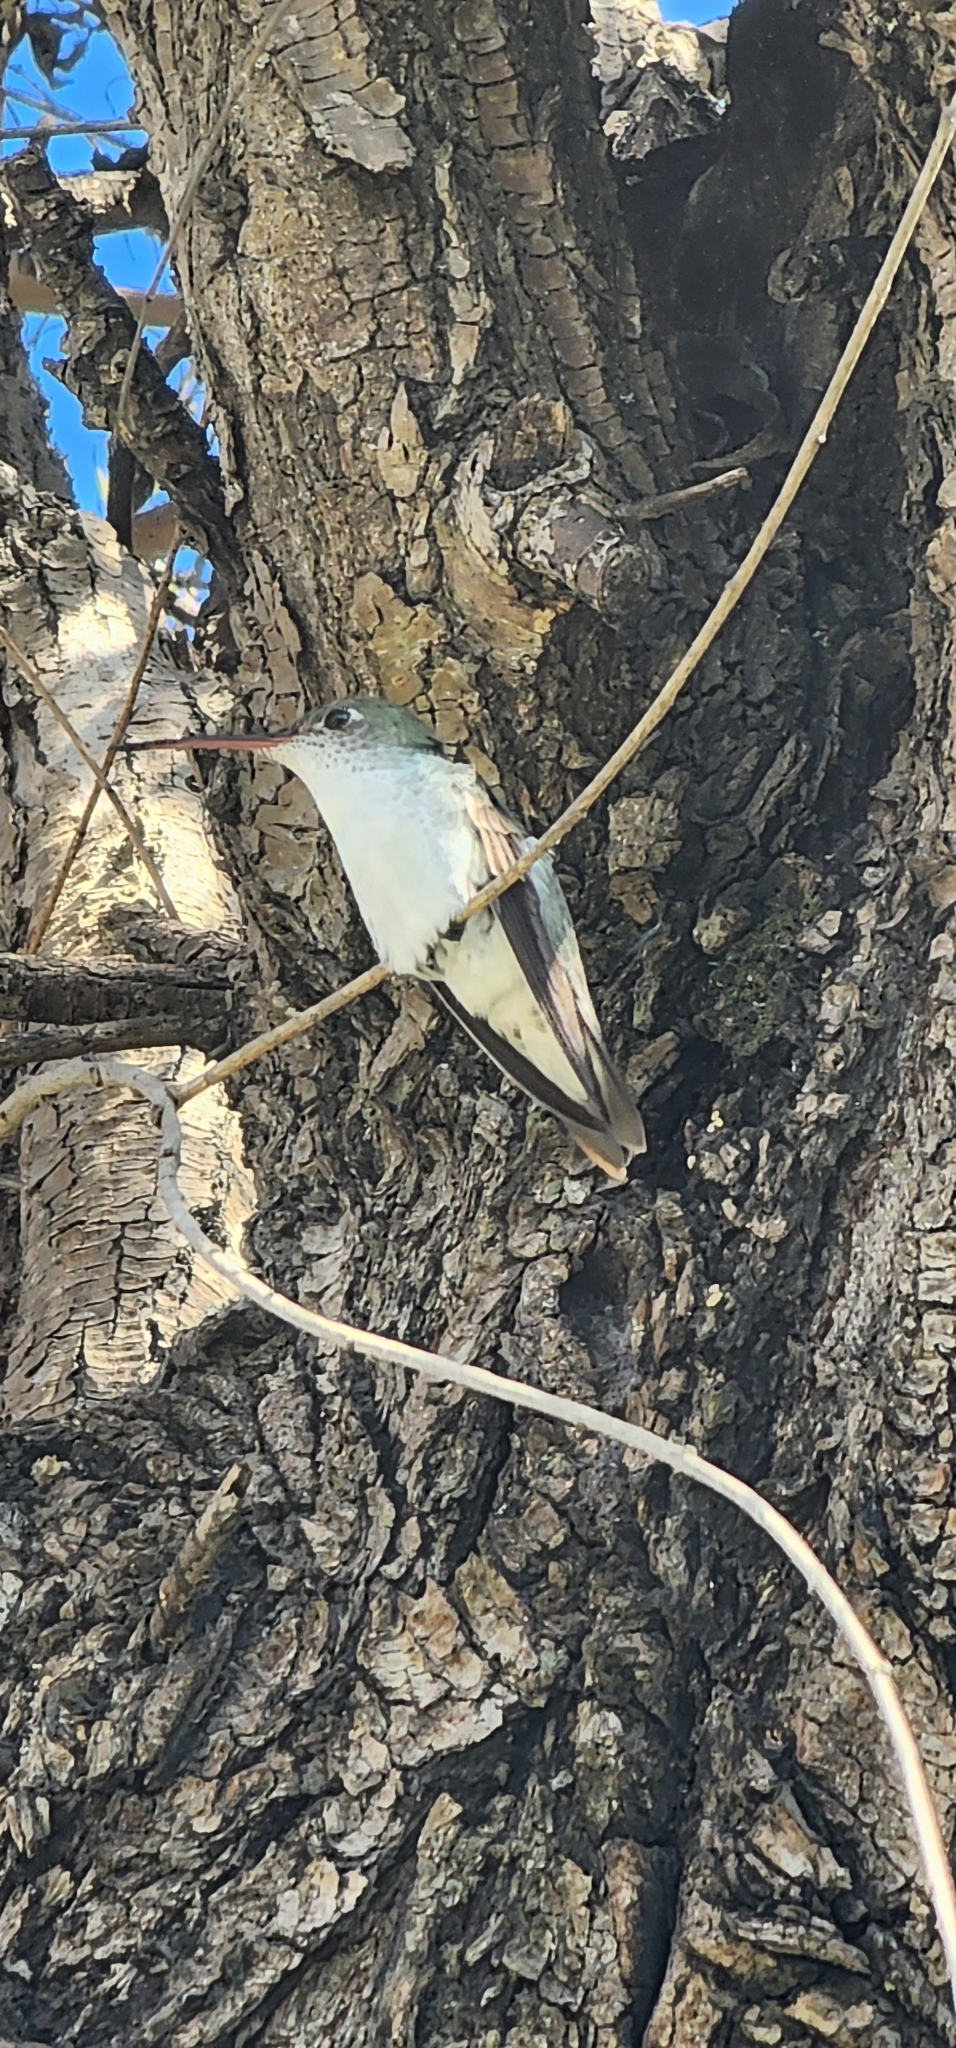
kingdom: Animalia
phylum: Chordata
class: Aves
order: Apodiformes
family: Trochilidae
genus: Elliotomyia
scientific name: Elliotomyia chionogaster
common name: White-bellied hummingbird
